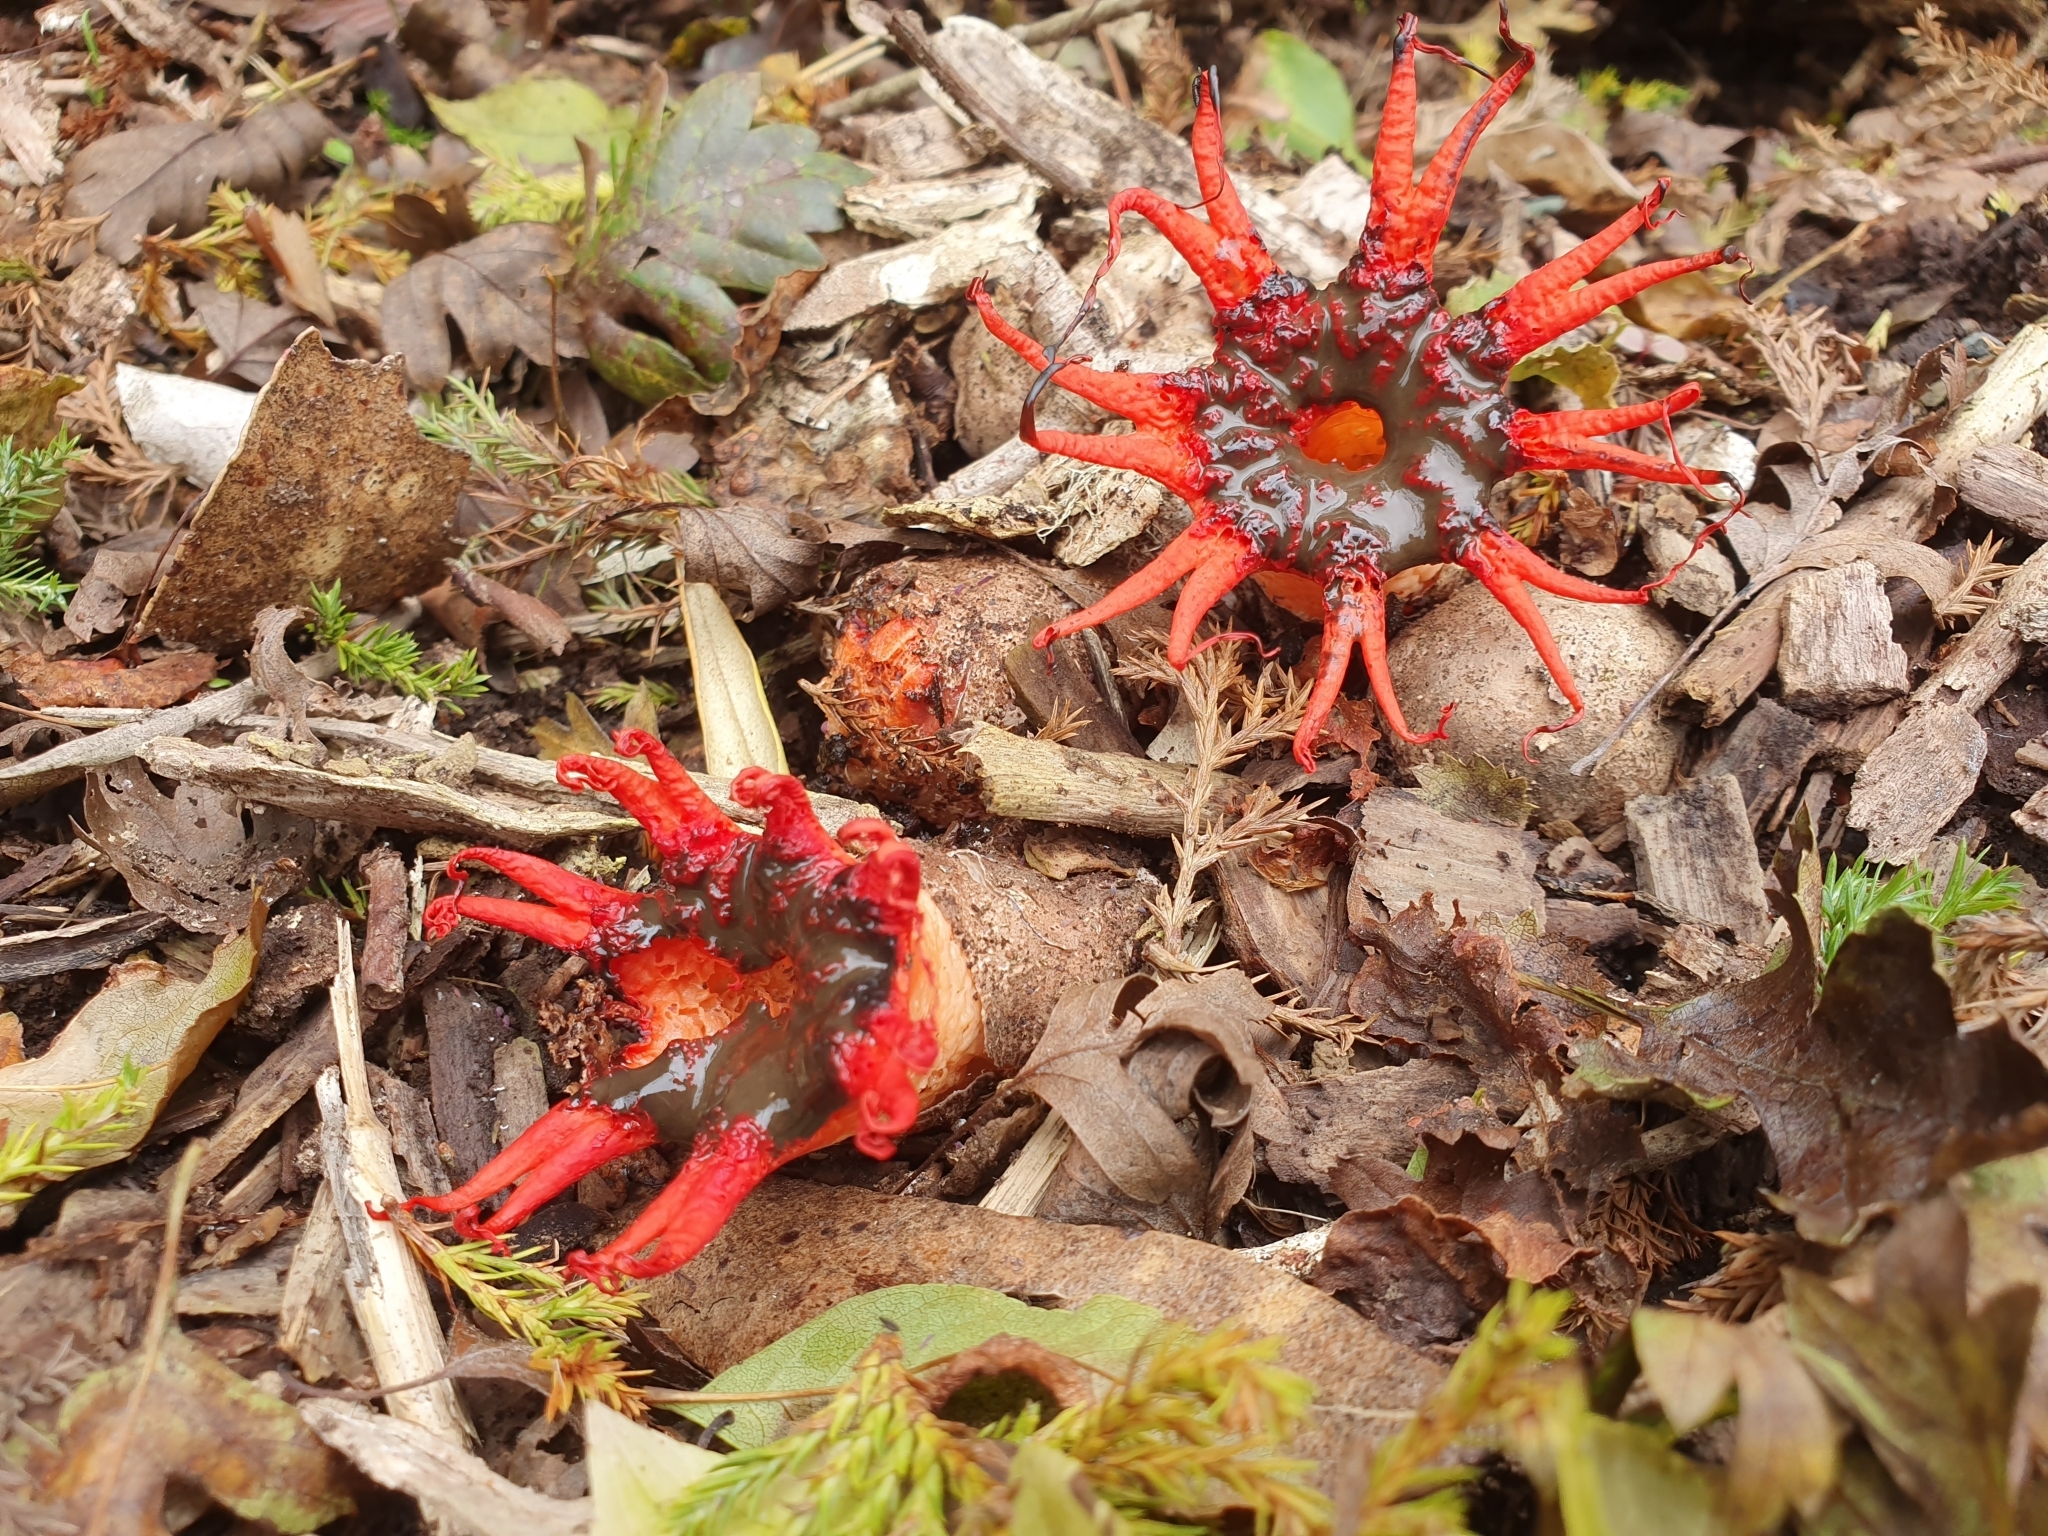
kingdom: Fungi
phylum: Basidiomycota
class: Agaricomycetes
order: Phallales
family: Phallaceae
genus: Aseroe
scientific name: Aseroe rubra
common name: Starfish fungus
